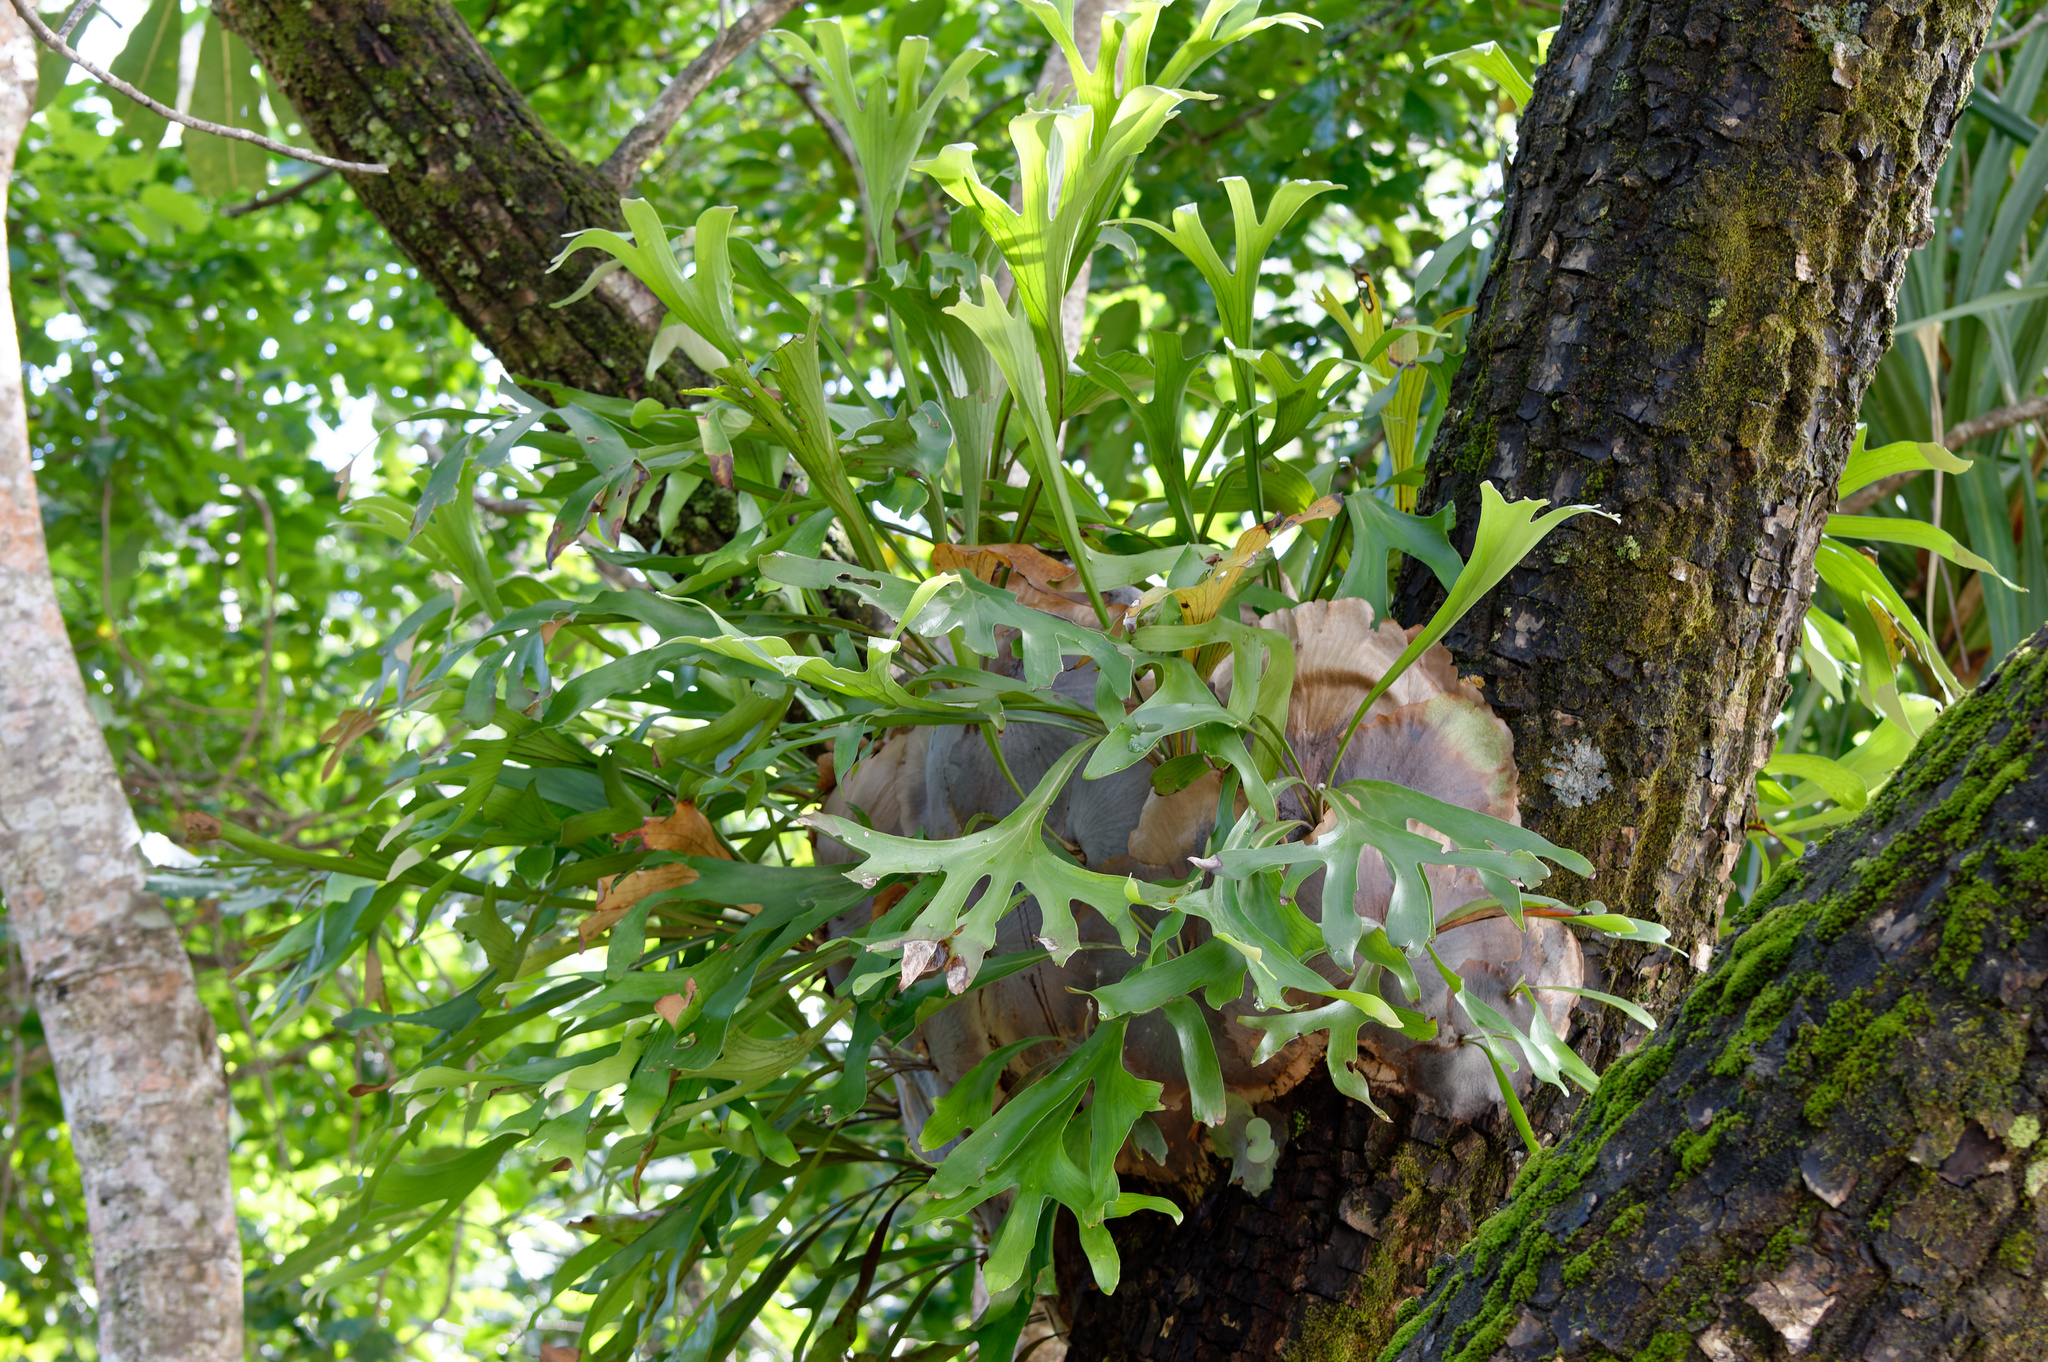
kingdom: Plantae
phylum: Tracheophyta
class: Polypodiopsida
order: Polypodiales
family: Polypodiaceae
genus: Platycerium
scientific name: Platycerium hillii
